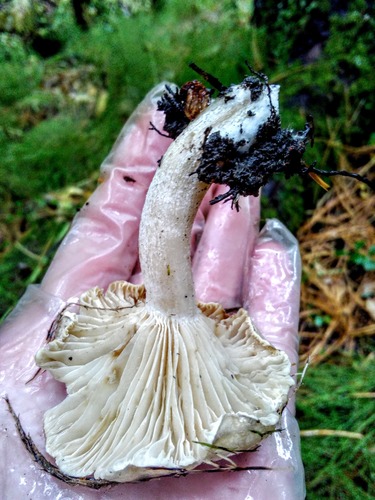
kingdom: Fungi
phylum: Basidiomycota
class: Agaricomycetes
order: Agaricales
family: Hygrophoraceae
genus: Hygrophorus
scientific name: Hygrophorus hedrychii
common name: Sweet woodwax
